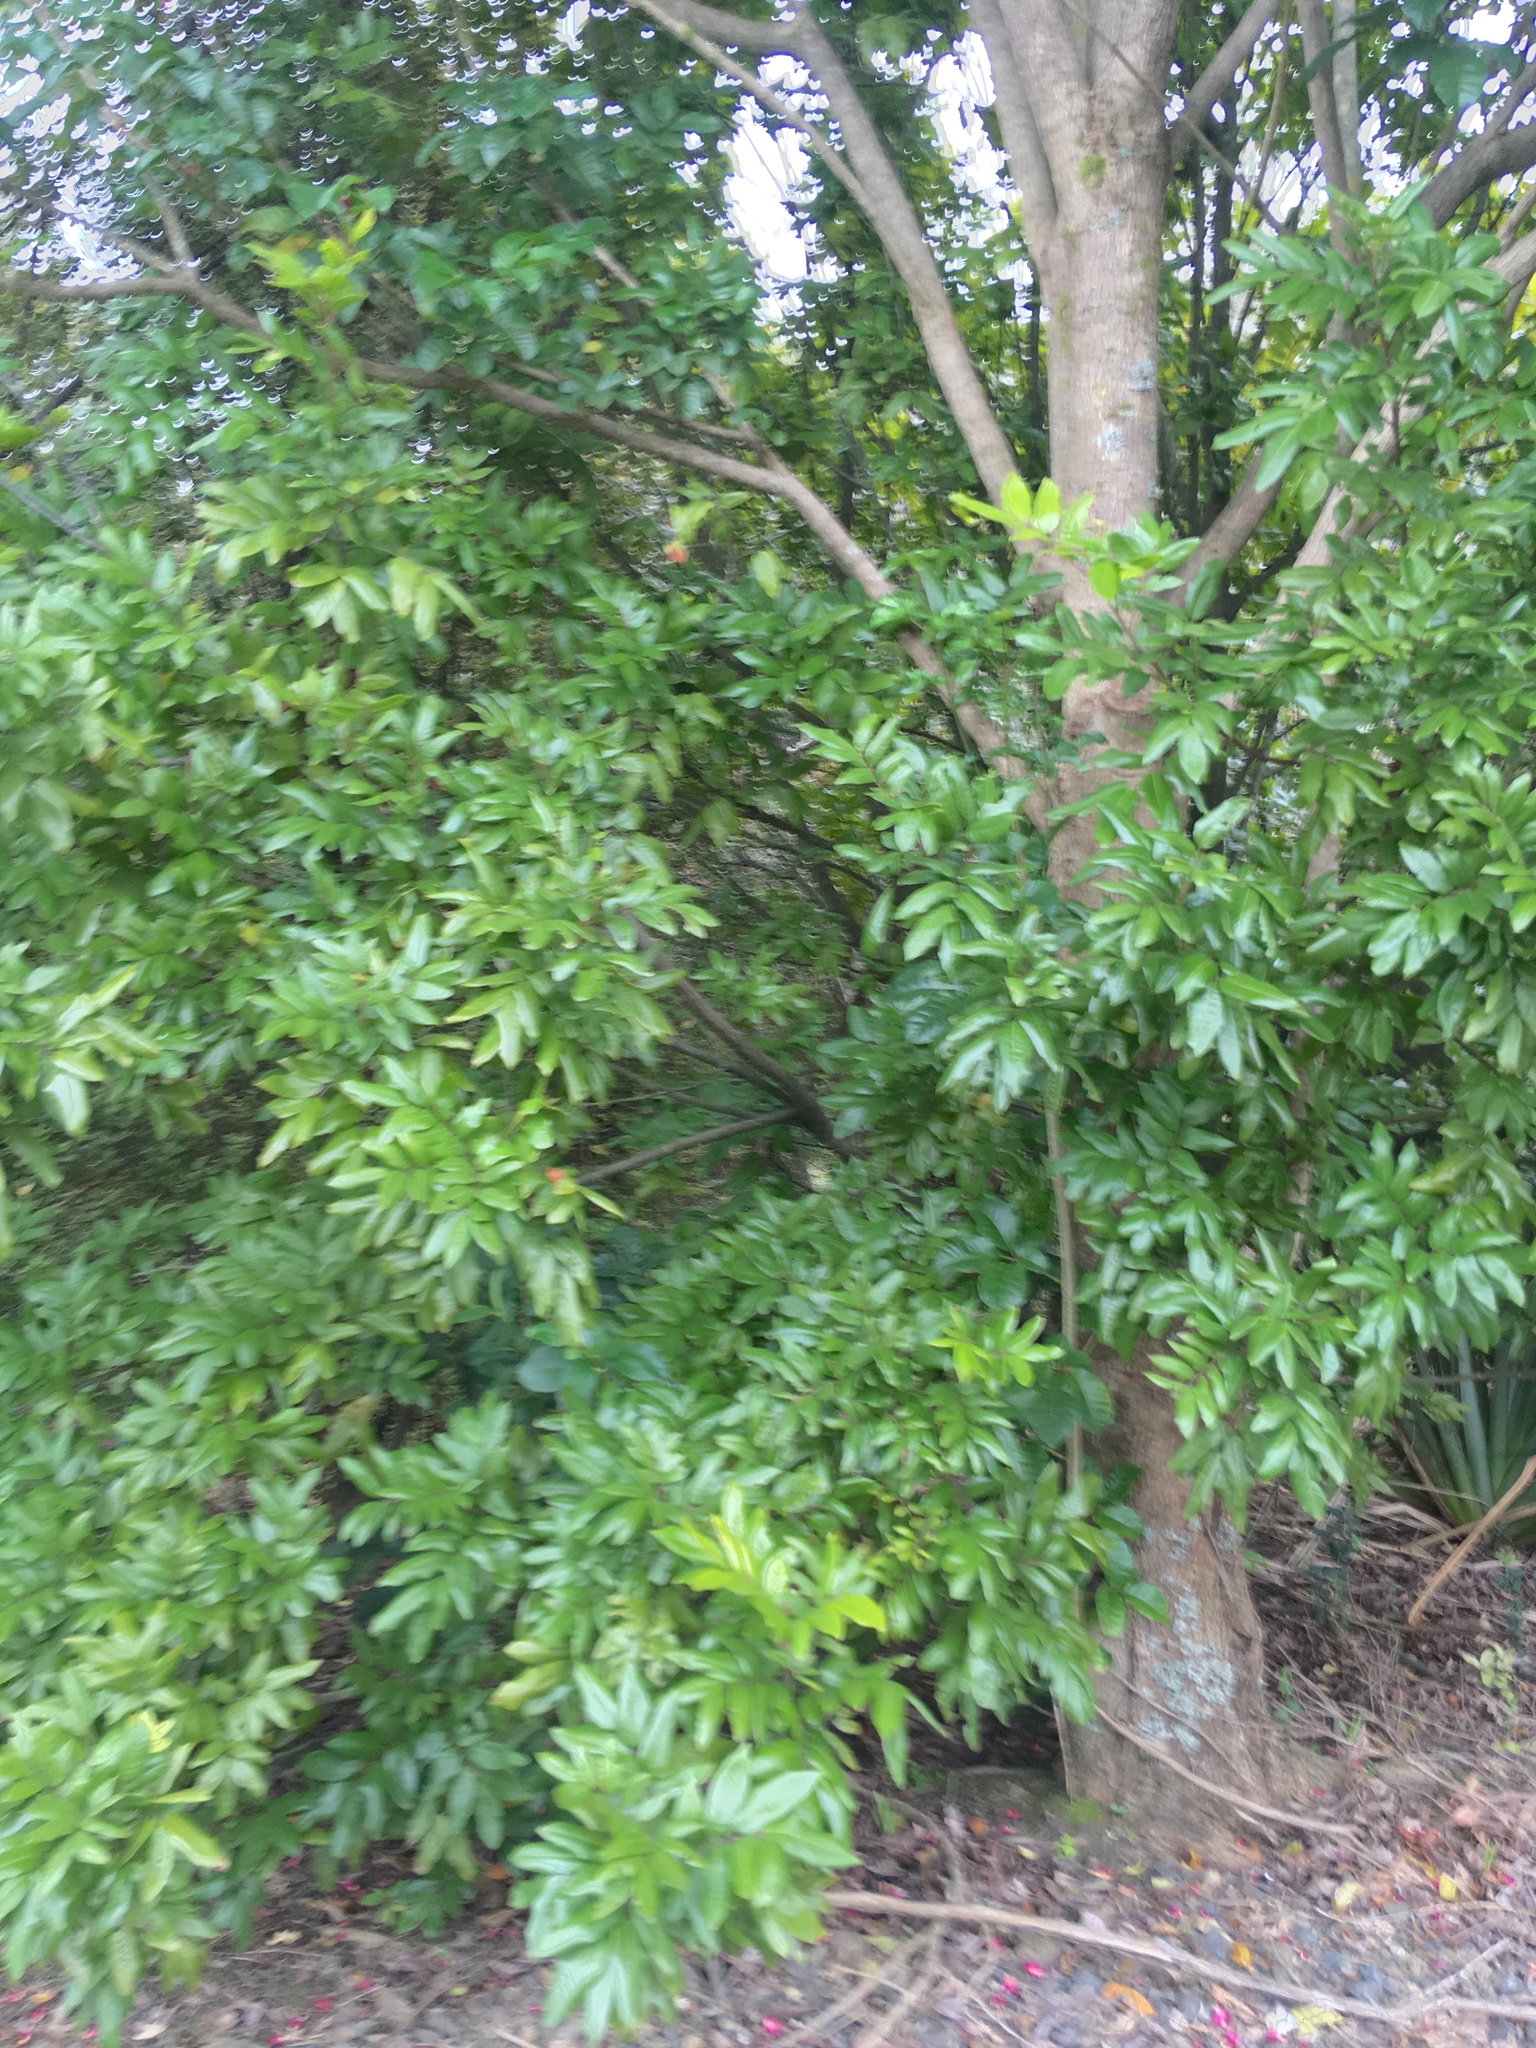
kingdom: Plantae
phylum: Tracheophyta
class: Magnoliopsida
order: Sapindales
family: Sapindaceae
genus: Alectryon
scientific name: Alectryon excelsus
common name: Three kings titoki
